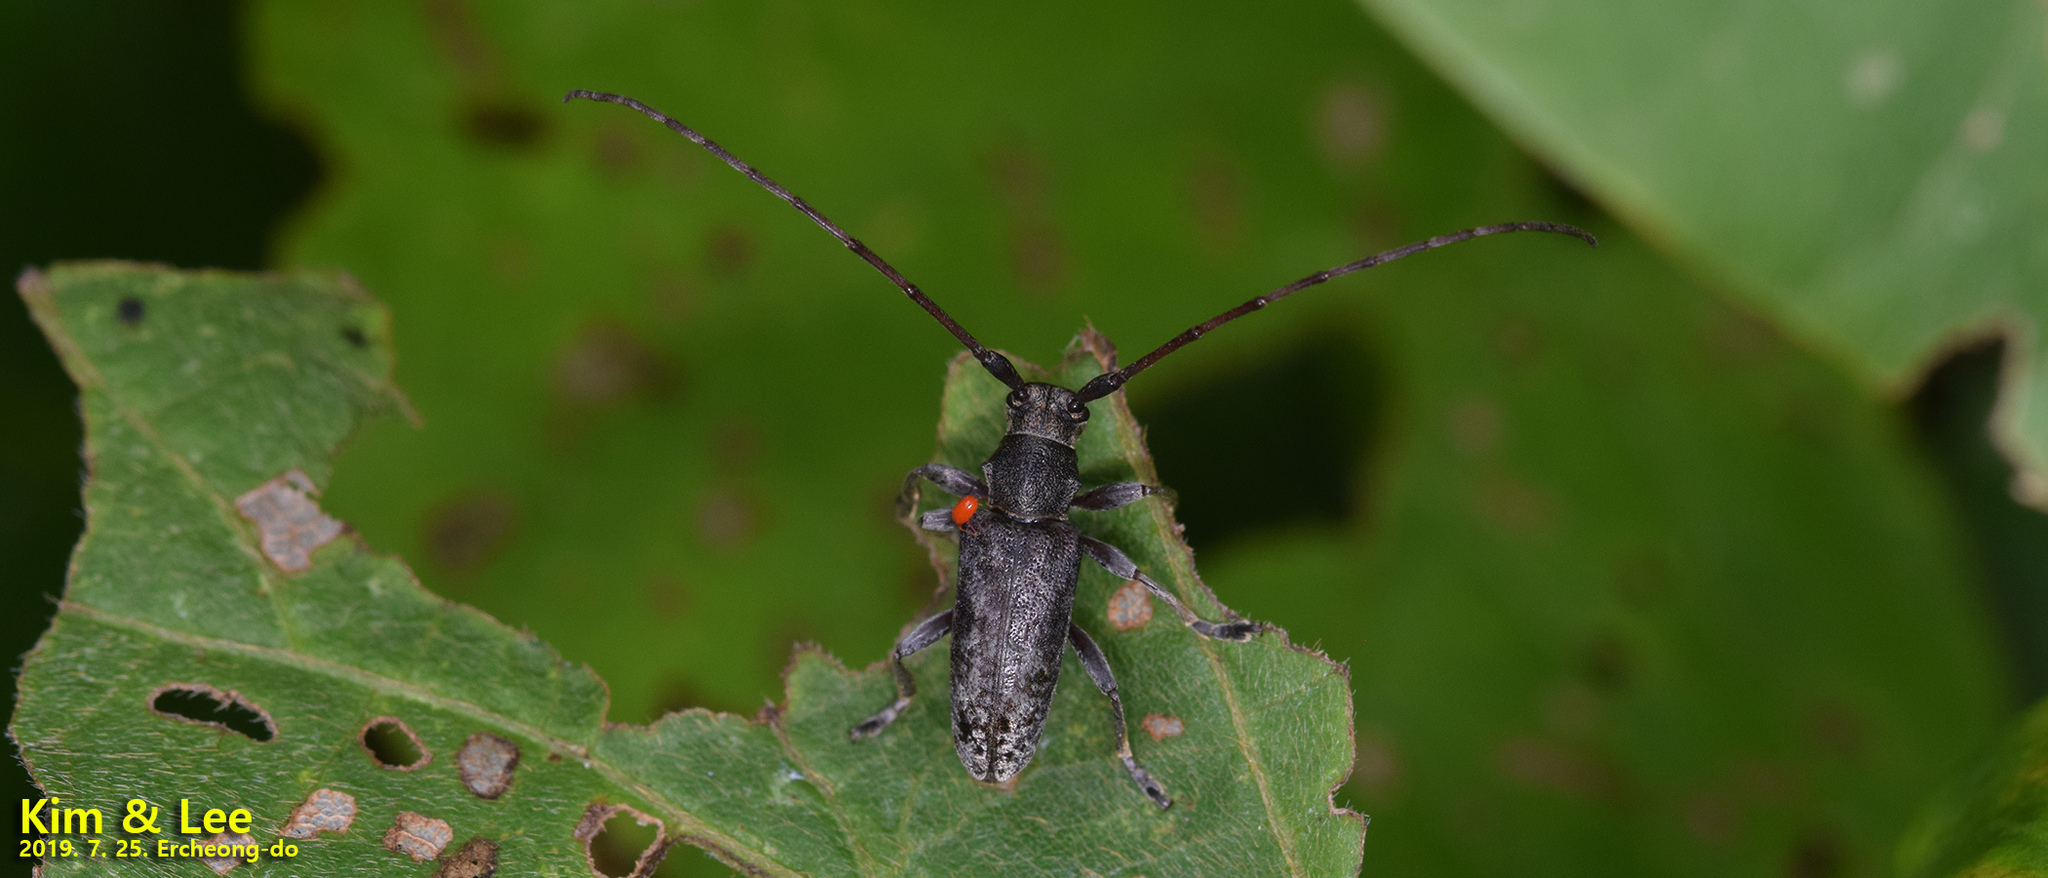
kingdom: Animalia
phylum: Arthropoda
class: Insecta
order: Coleoptera
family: Cerambycidae
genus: Acalolepta
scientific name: Acalolepta degener
